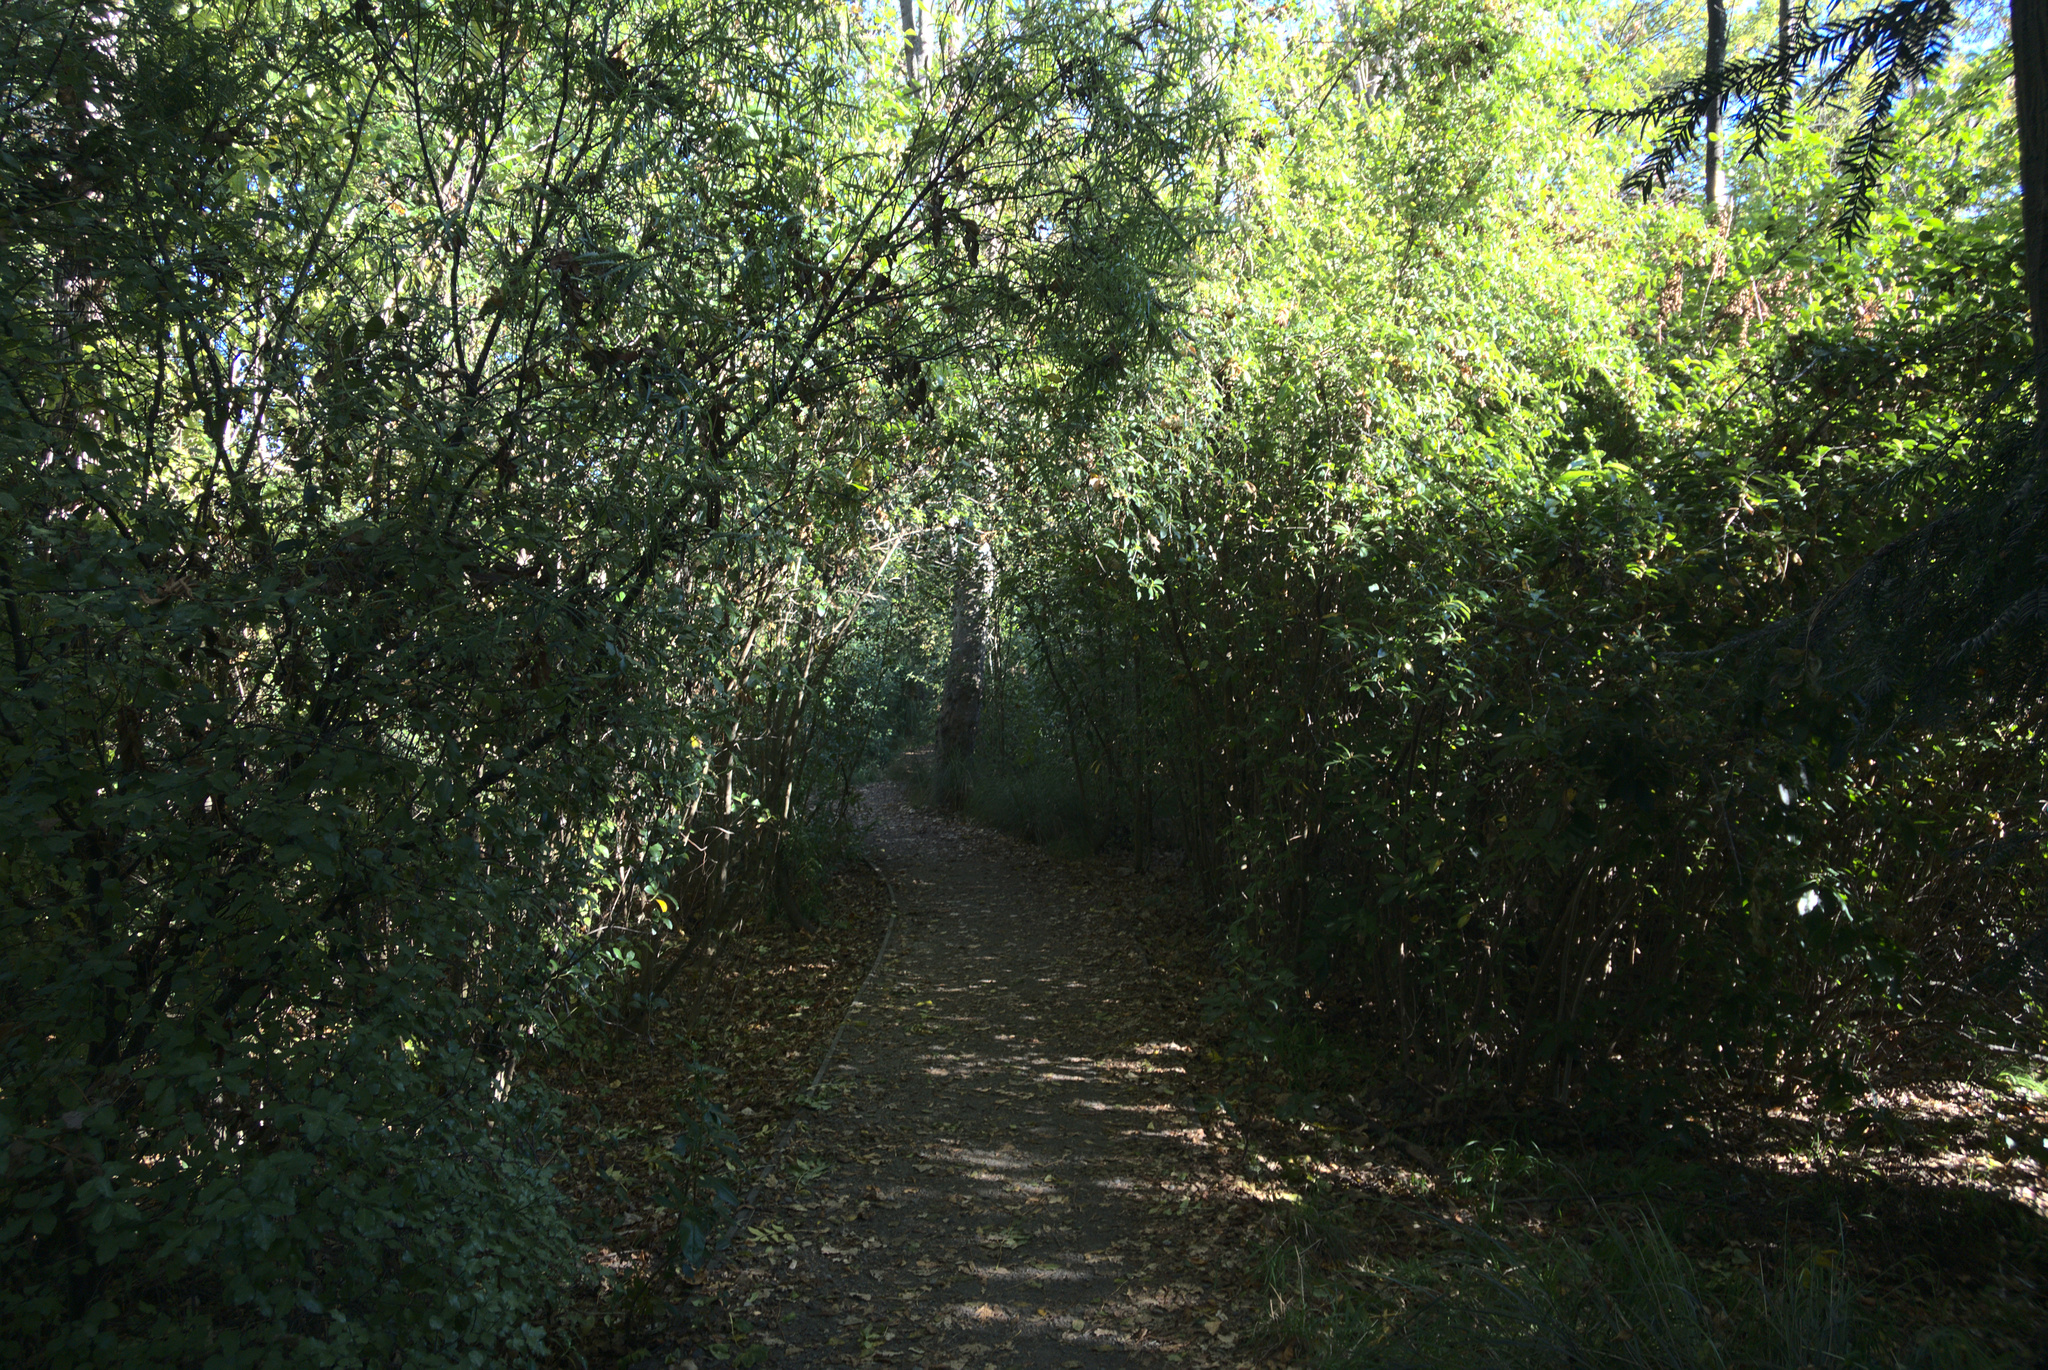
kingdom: Plantae
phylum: Tracheophyta
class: Magnoliopsida
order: Lamiales
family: Plantaginaceae
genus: Veronica
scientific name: Veronica salicifolia
